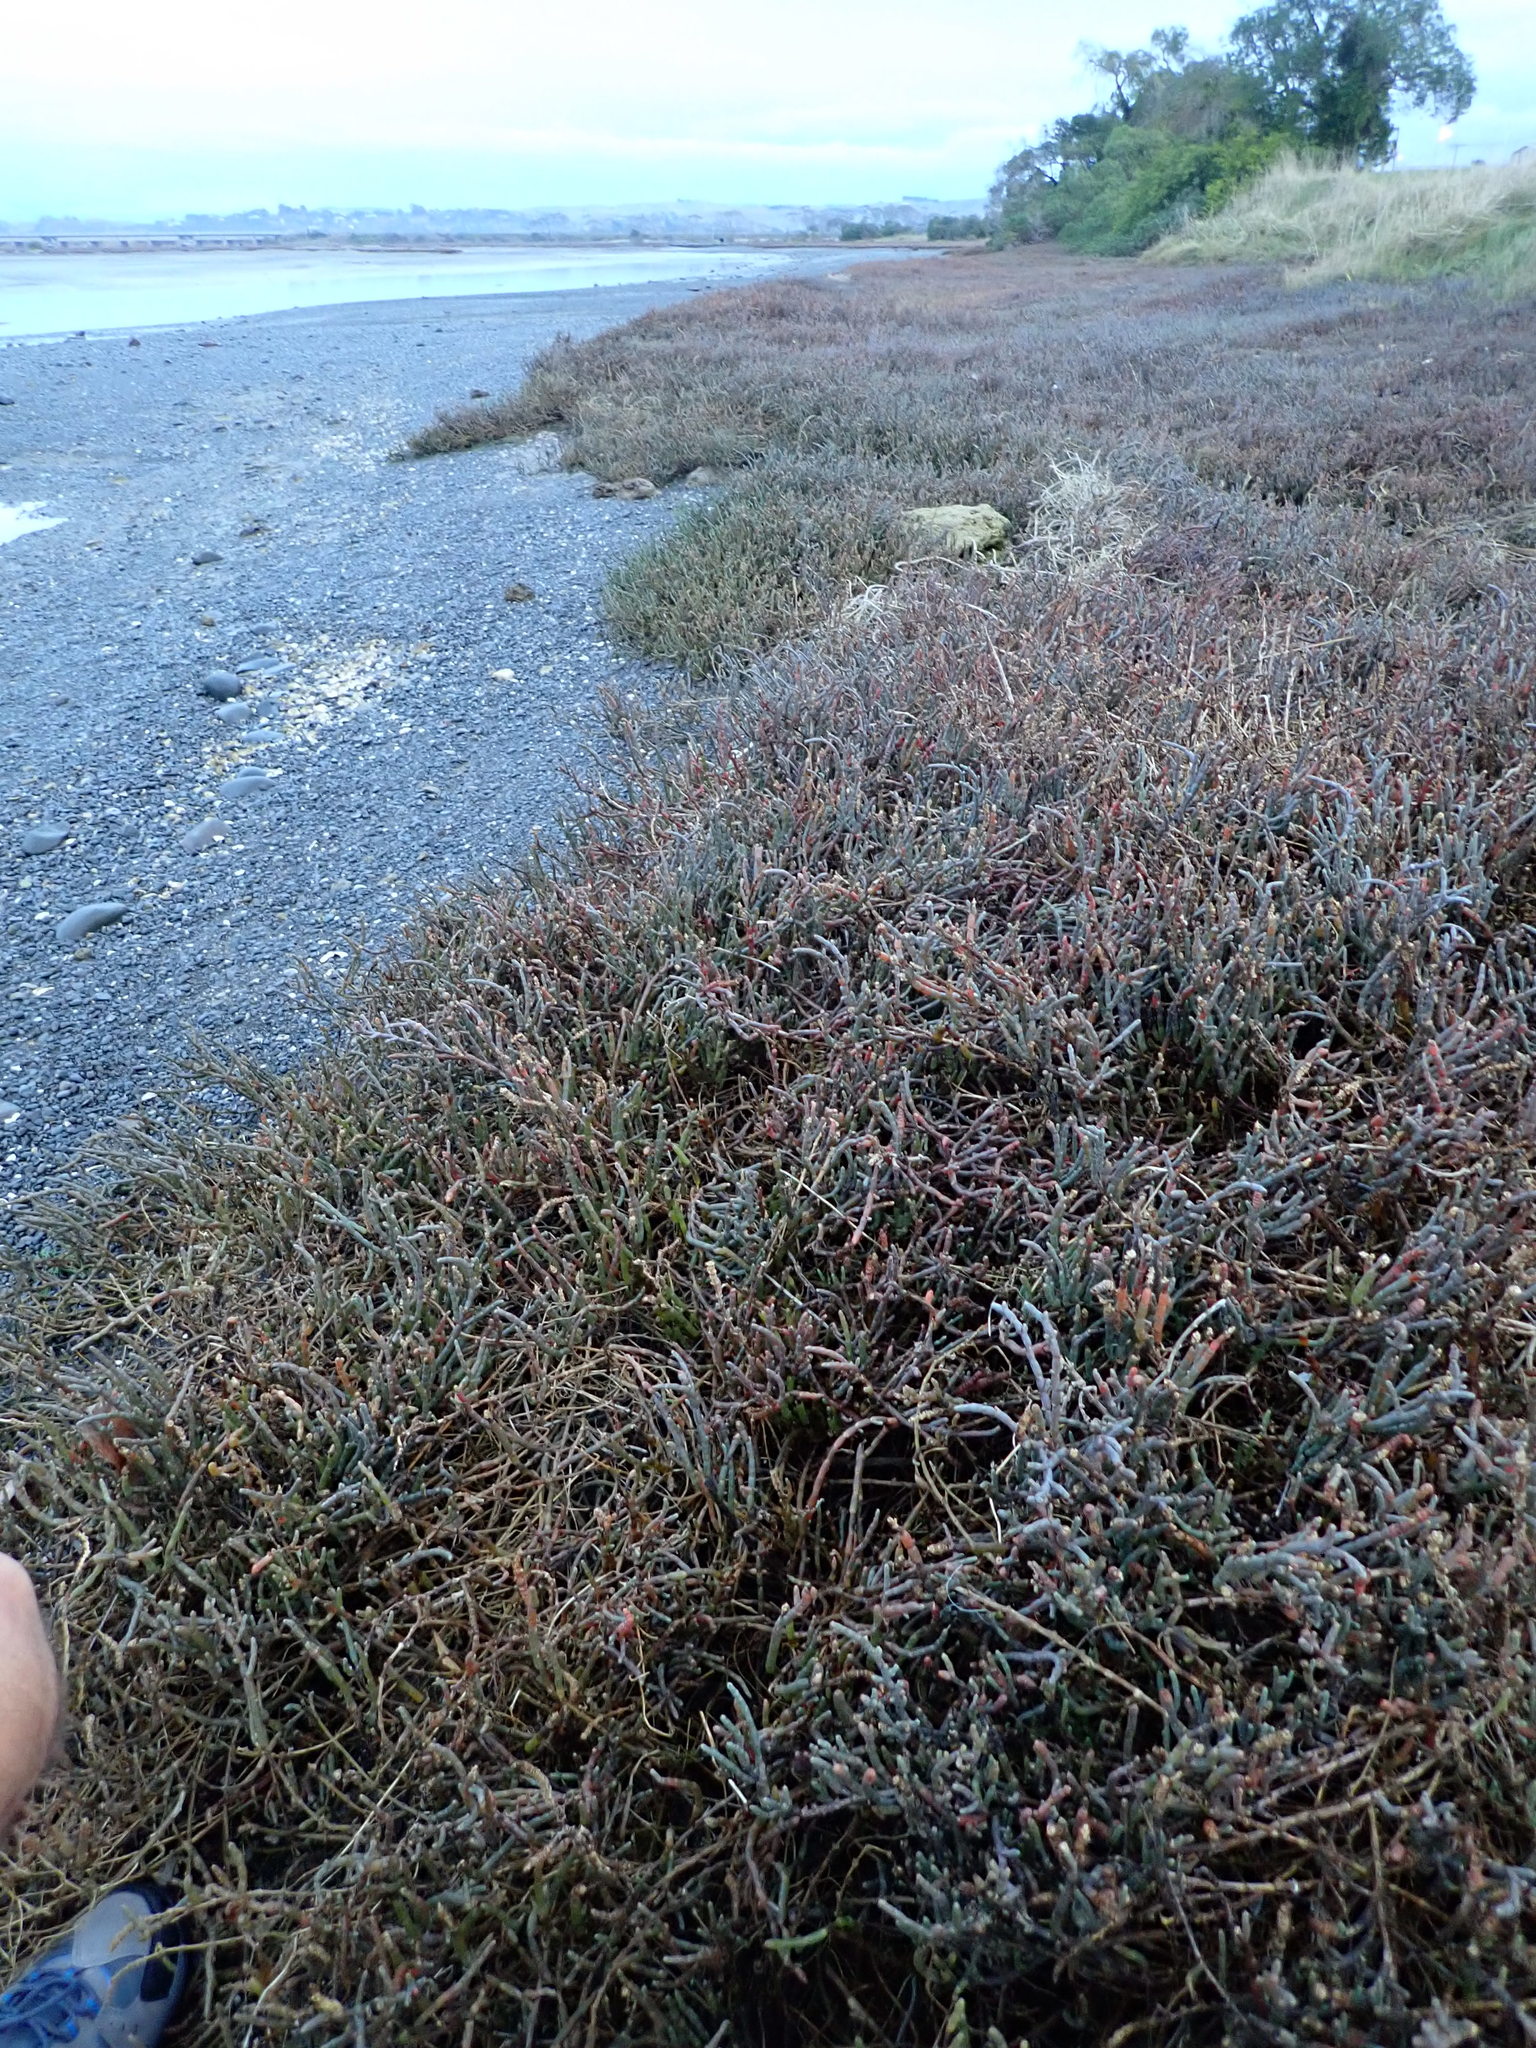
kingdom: Plantae
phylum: Tracheophyta
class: Magnoliopsida
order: Caryophyllales
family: Amaranthaceae
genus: Salicornia
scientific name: Salicornia quinqueflora
